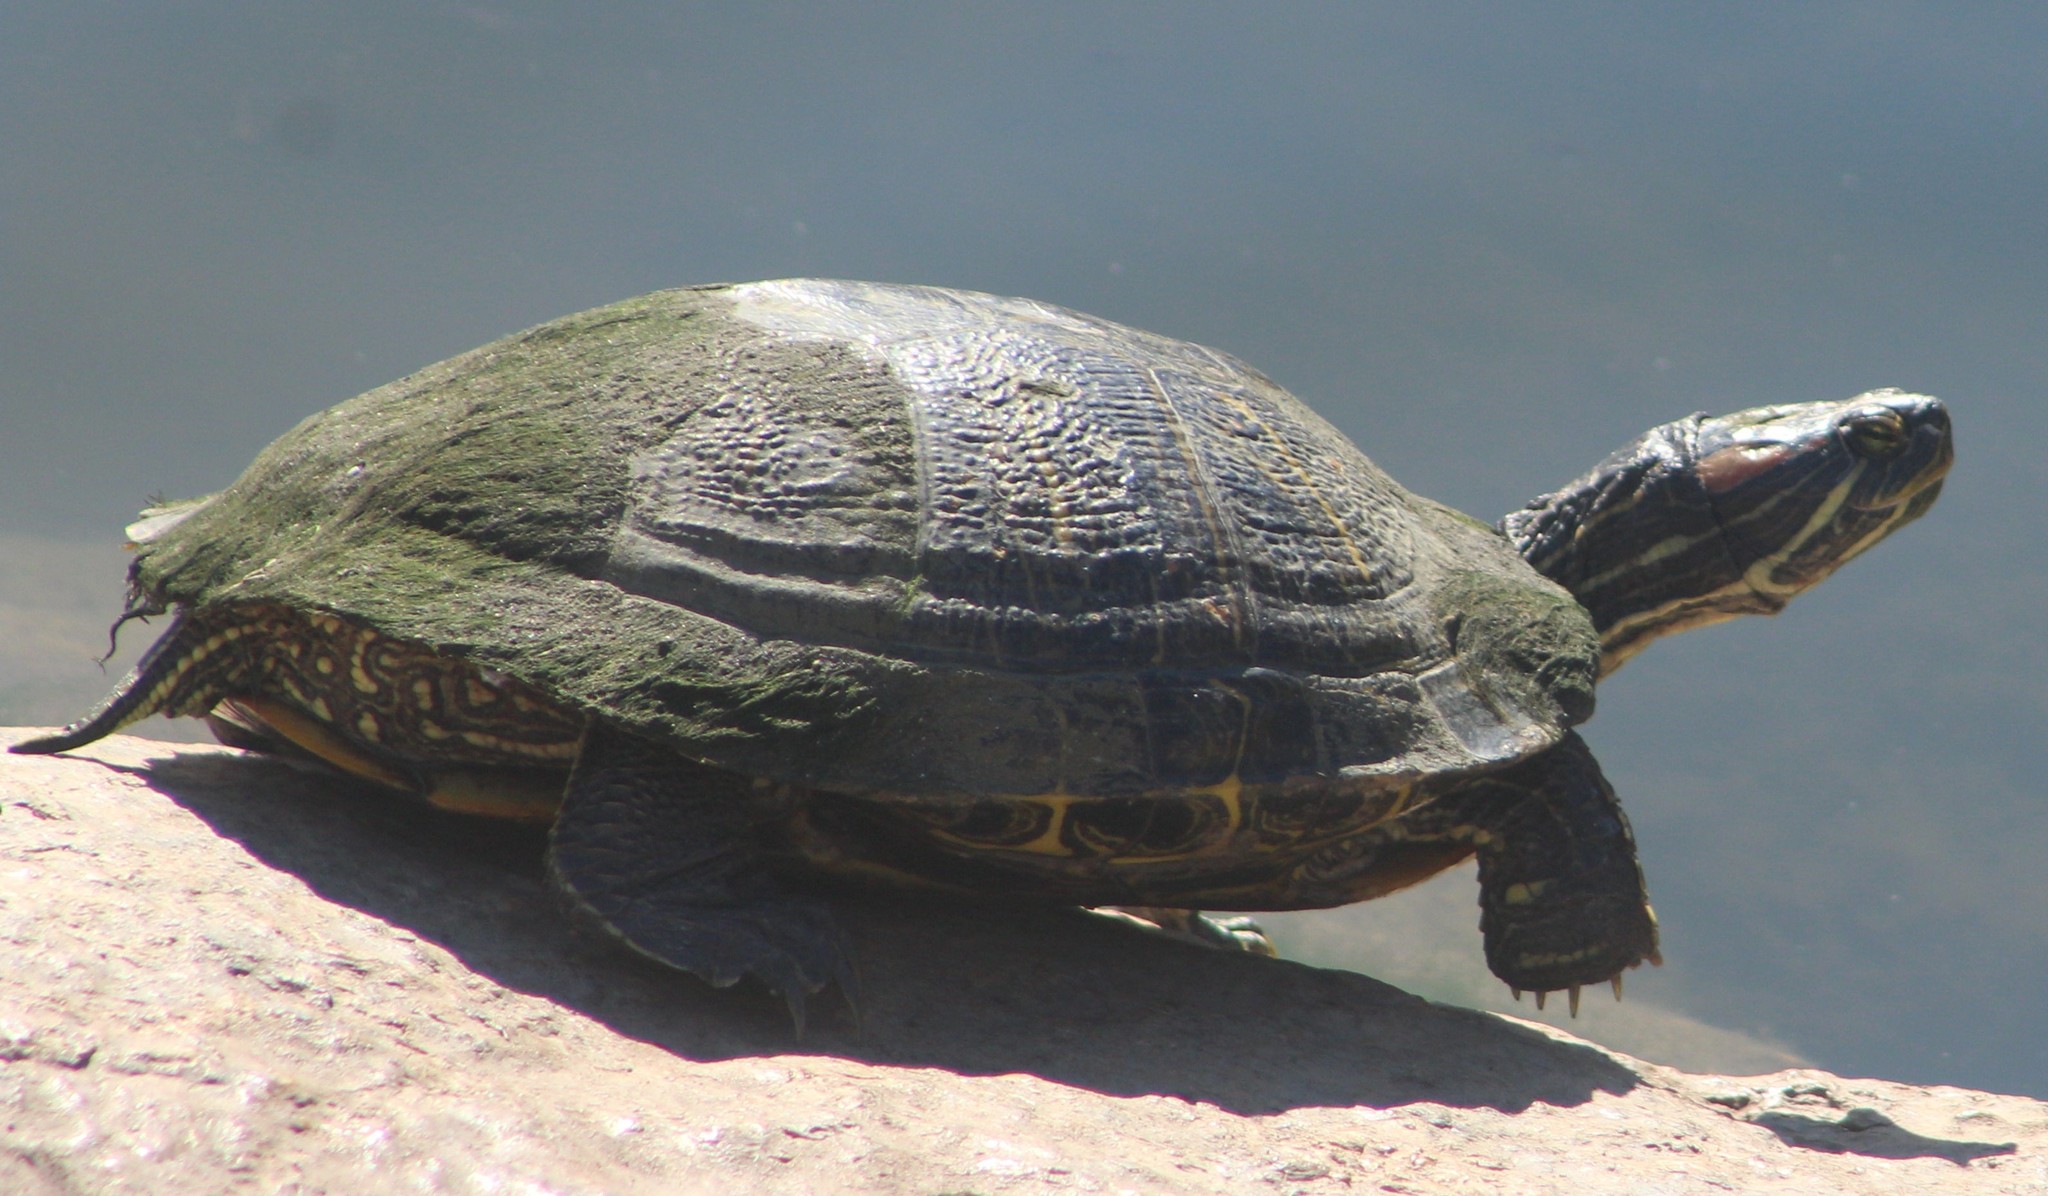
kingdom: Animalia
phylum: Chordata
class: Testudines
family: Emydidae
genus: Trachemys
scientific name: Trachemys scripta
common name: Slider
